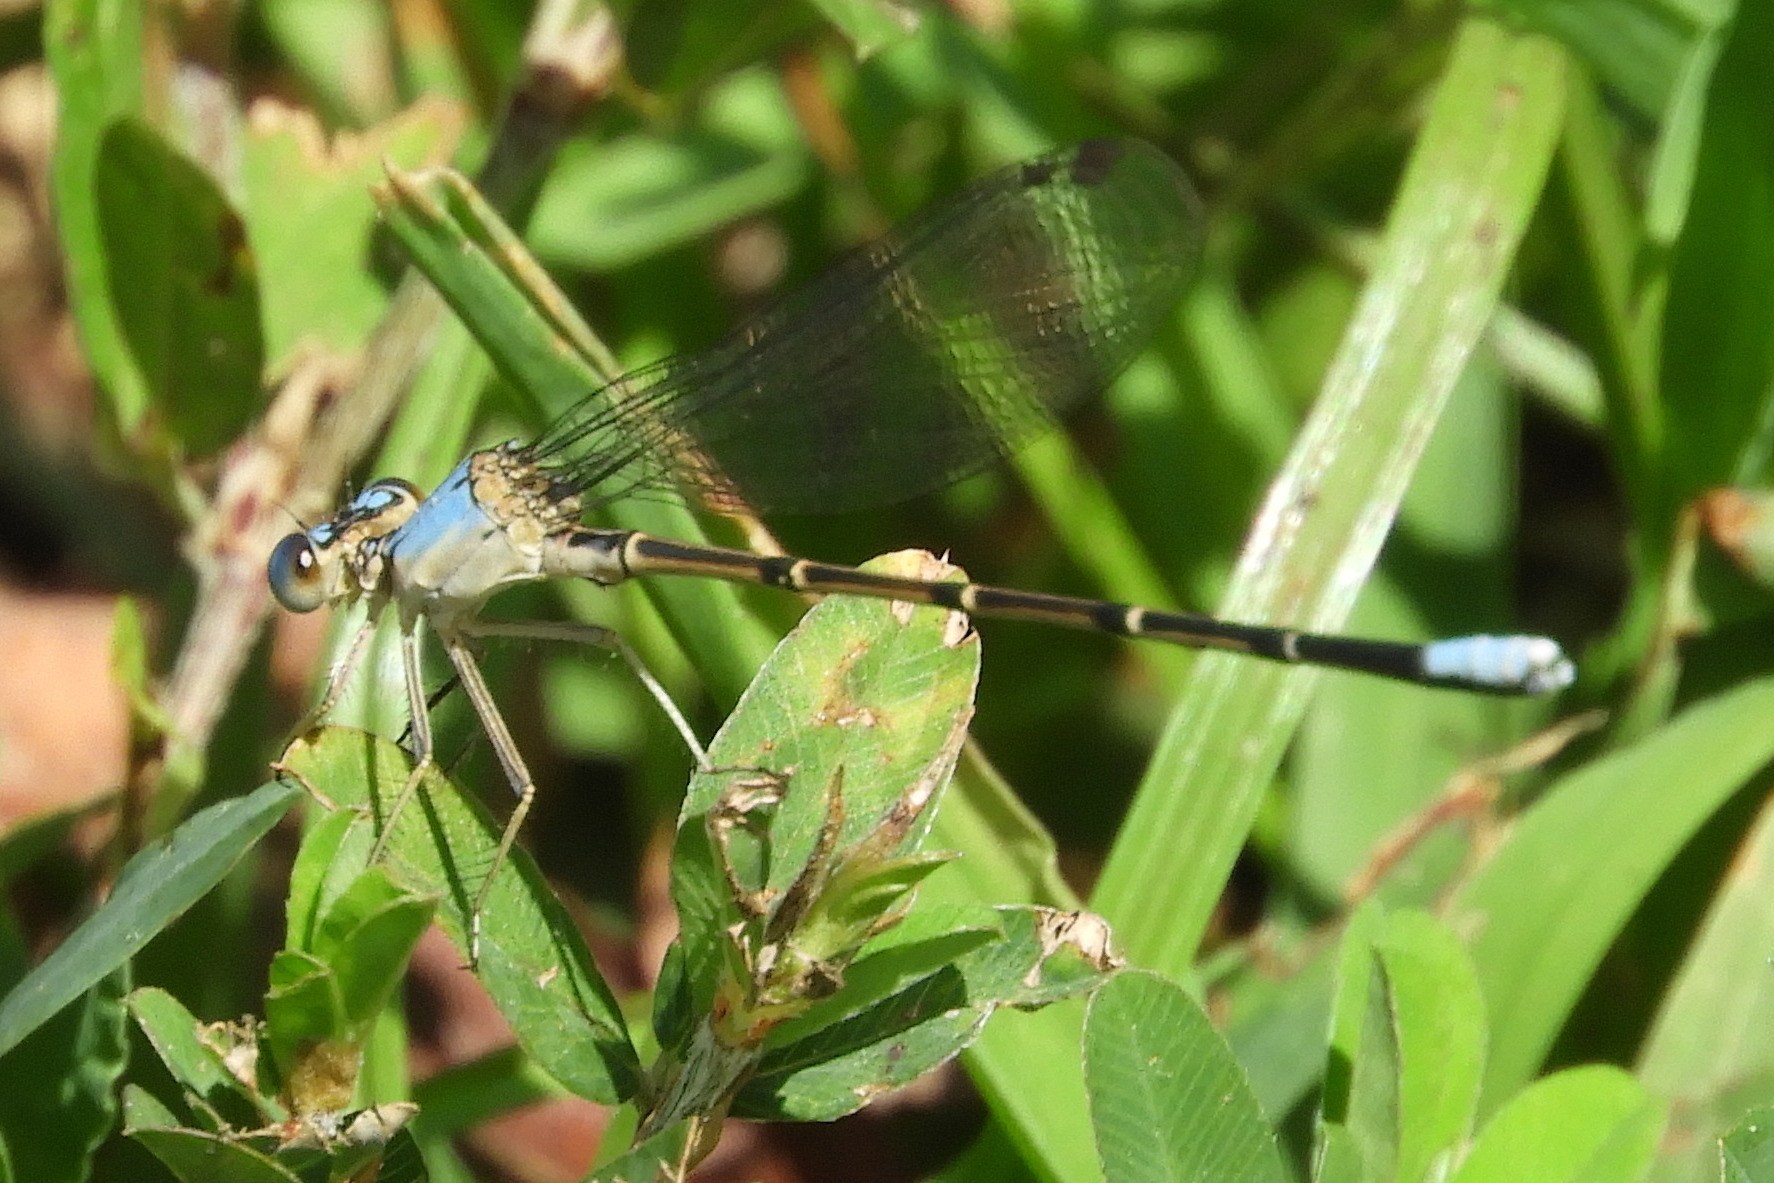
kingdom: Animalia
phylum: Arthropoda
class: Insecta
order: Odonata
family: Coenagrionidae
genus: Argia
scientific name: Argia apicalis
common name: Blue-fronted dancer
